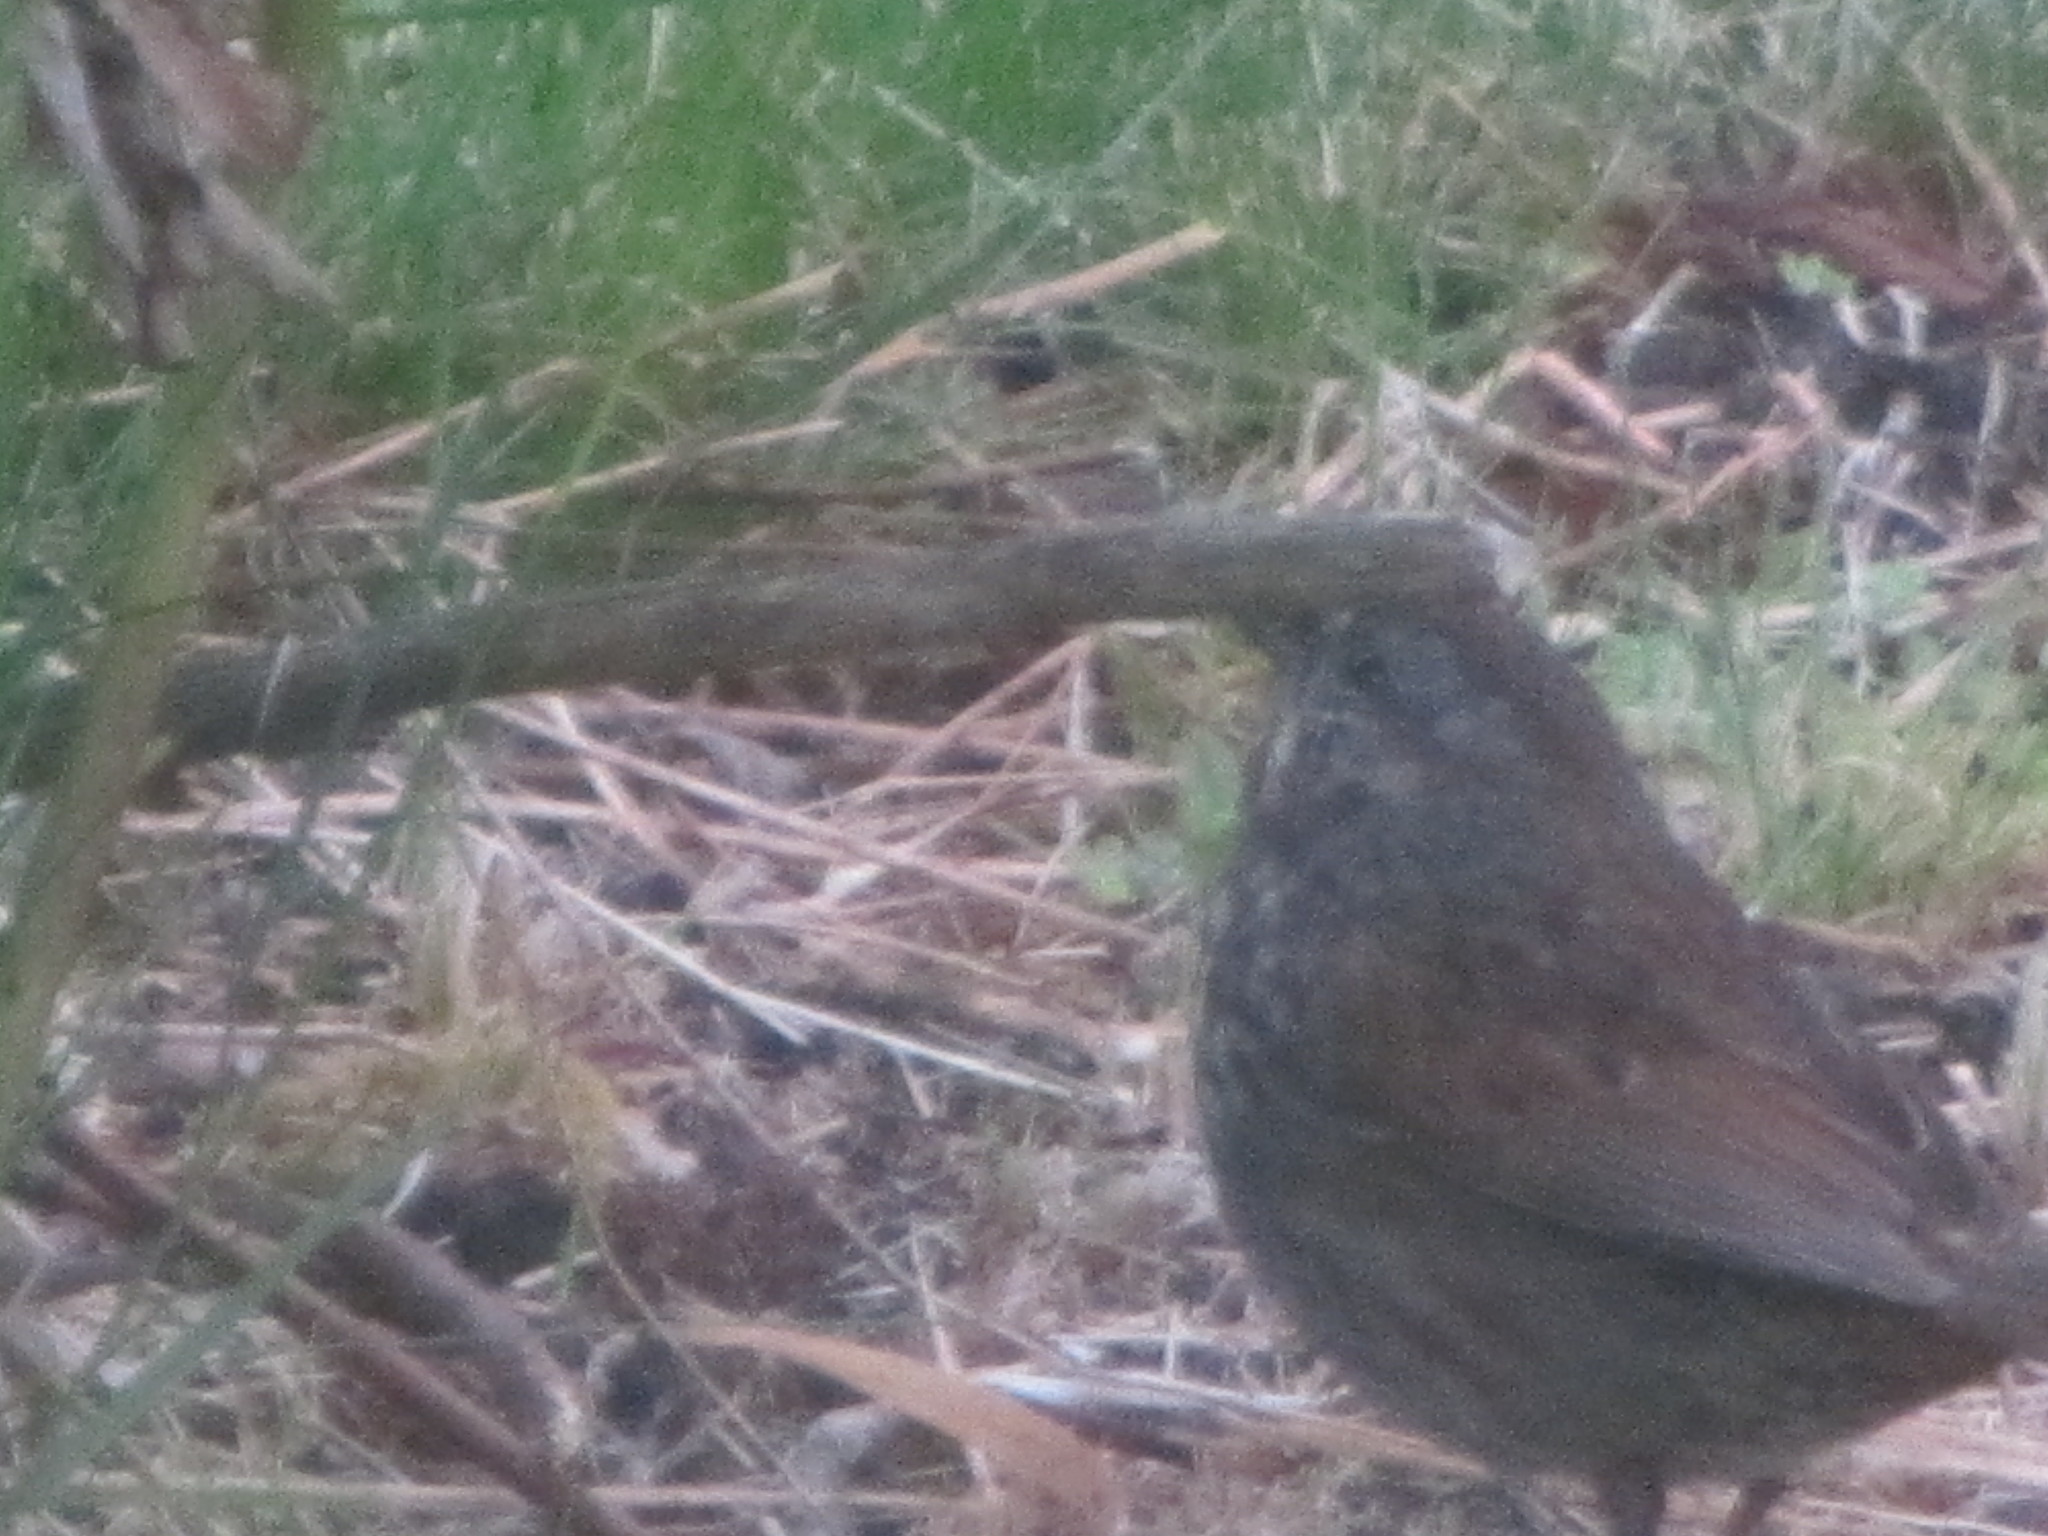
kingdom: Animalia
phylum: Chordata
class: Aves
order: Passeriformes
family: Passerellidae
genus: Melospiza
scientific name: Melospiza melodia
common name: Song sparrow
